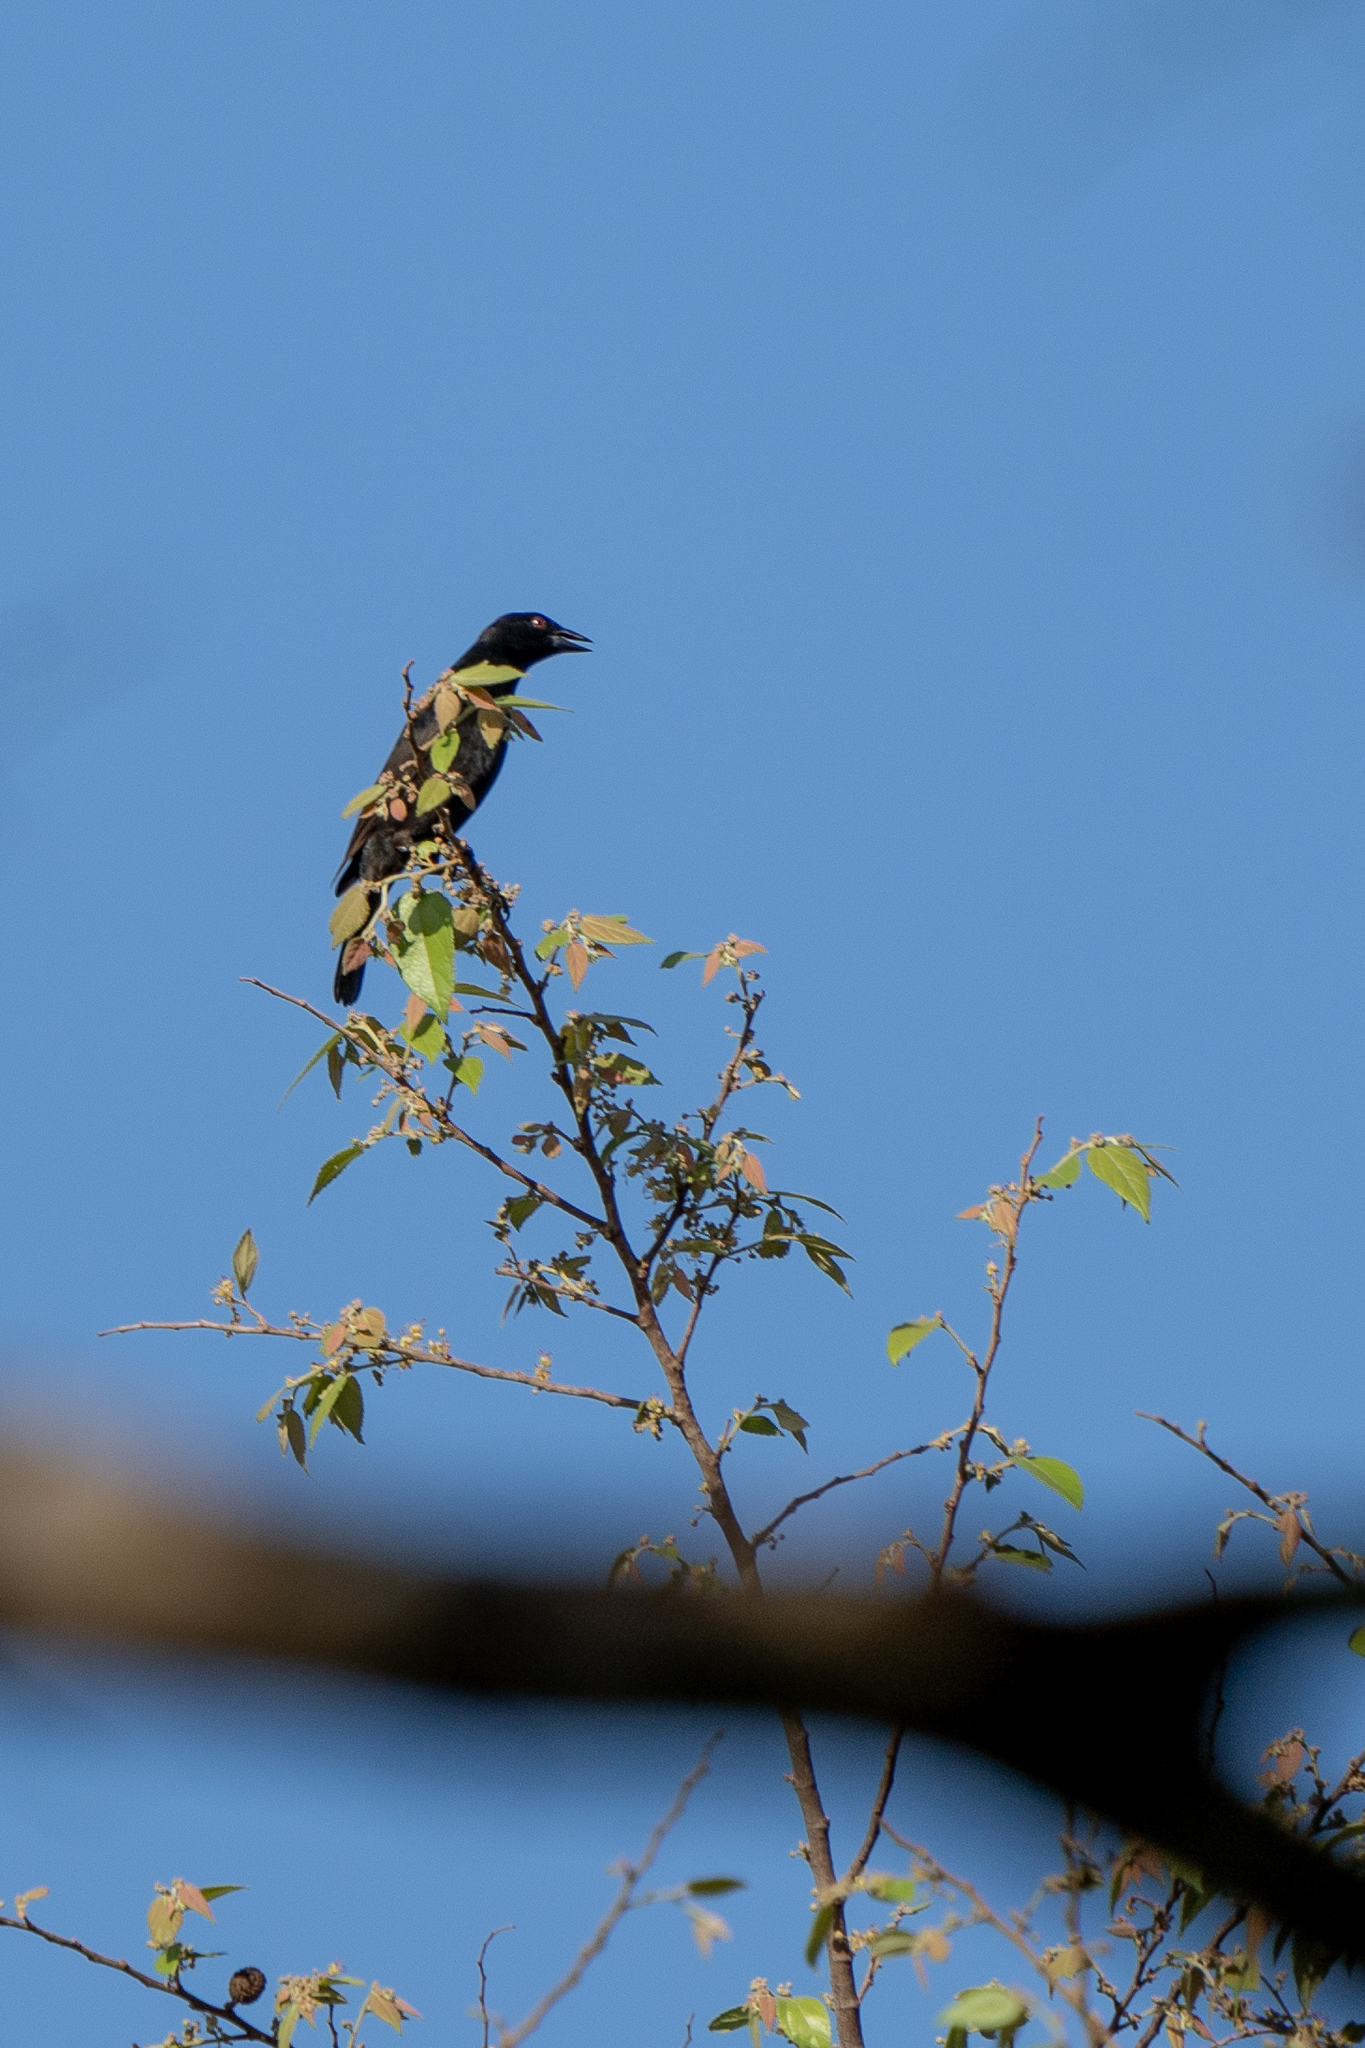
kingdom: Animalia
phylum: Chordata
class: Aves
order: Passeriformes
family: Icteridae
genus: Molothrus
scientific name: Molothrus aeneus
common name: Bronzed cowbird
